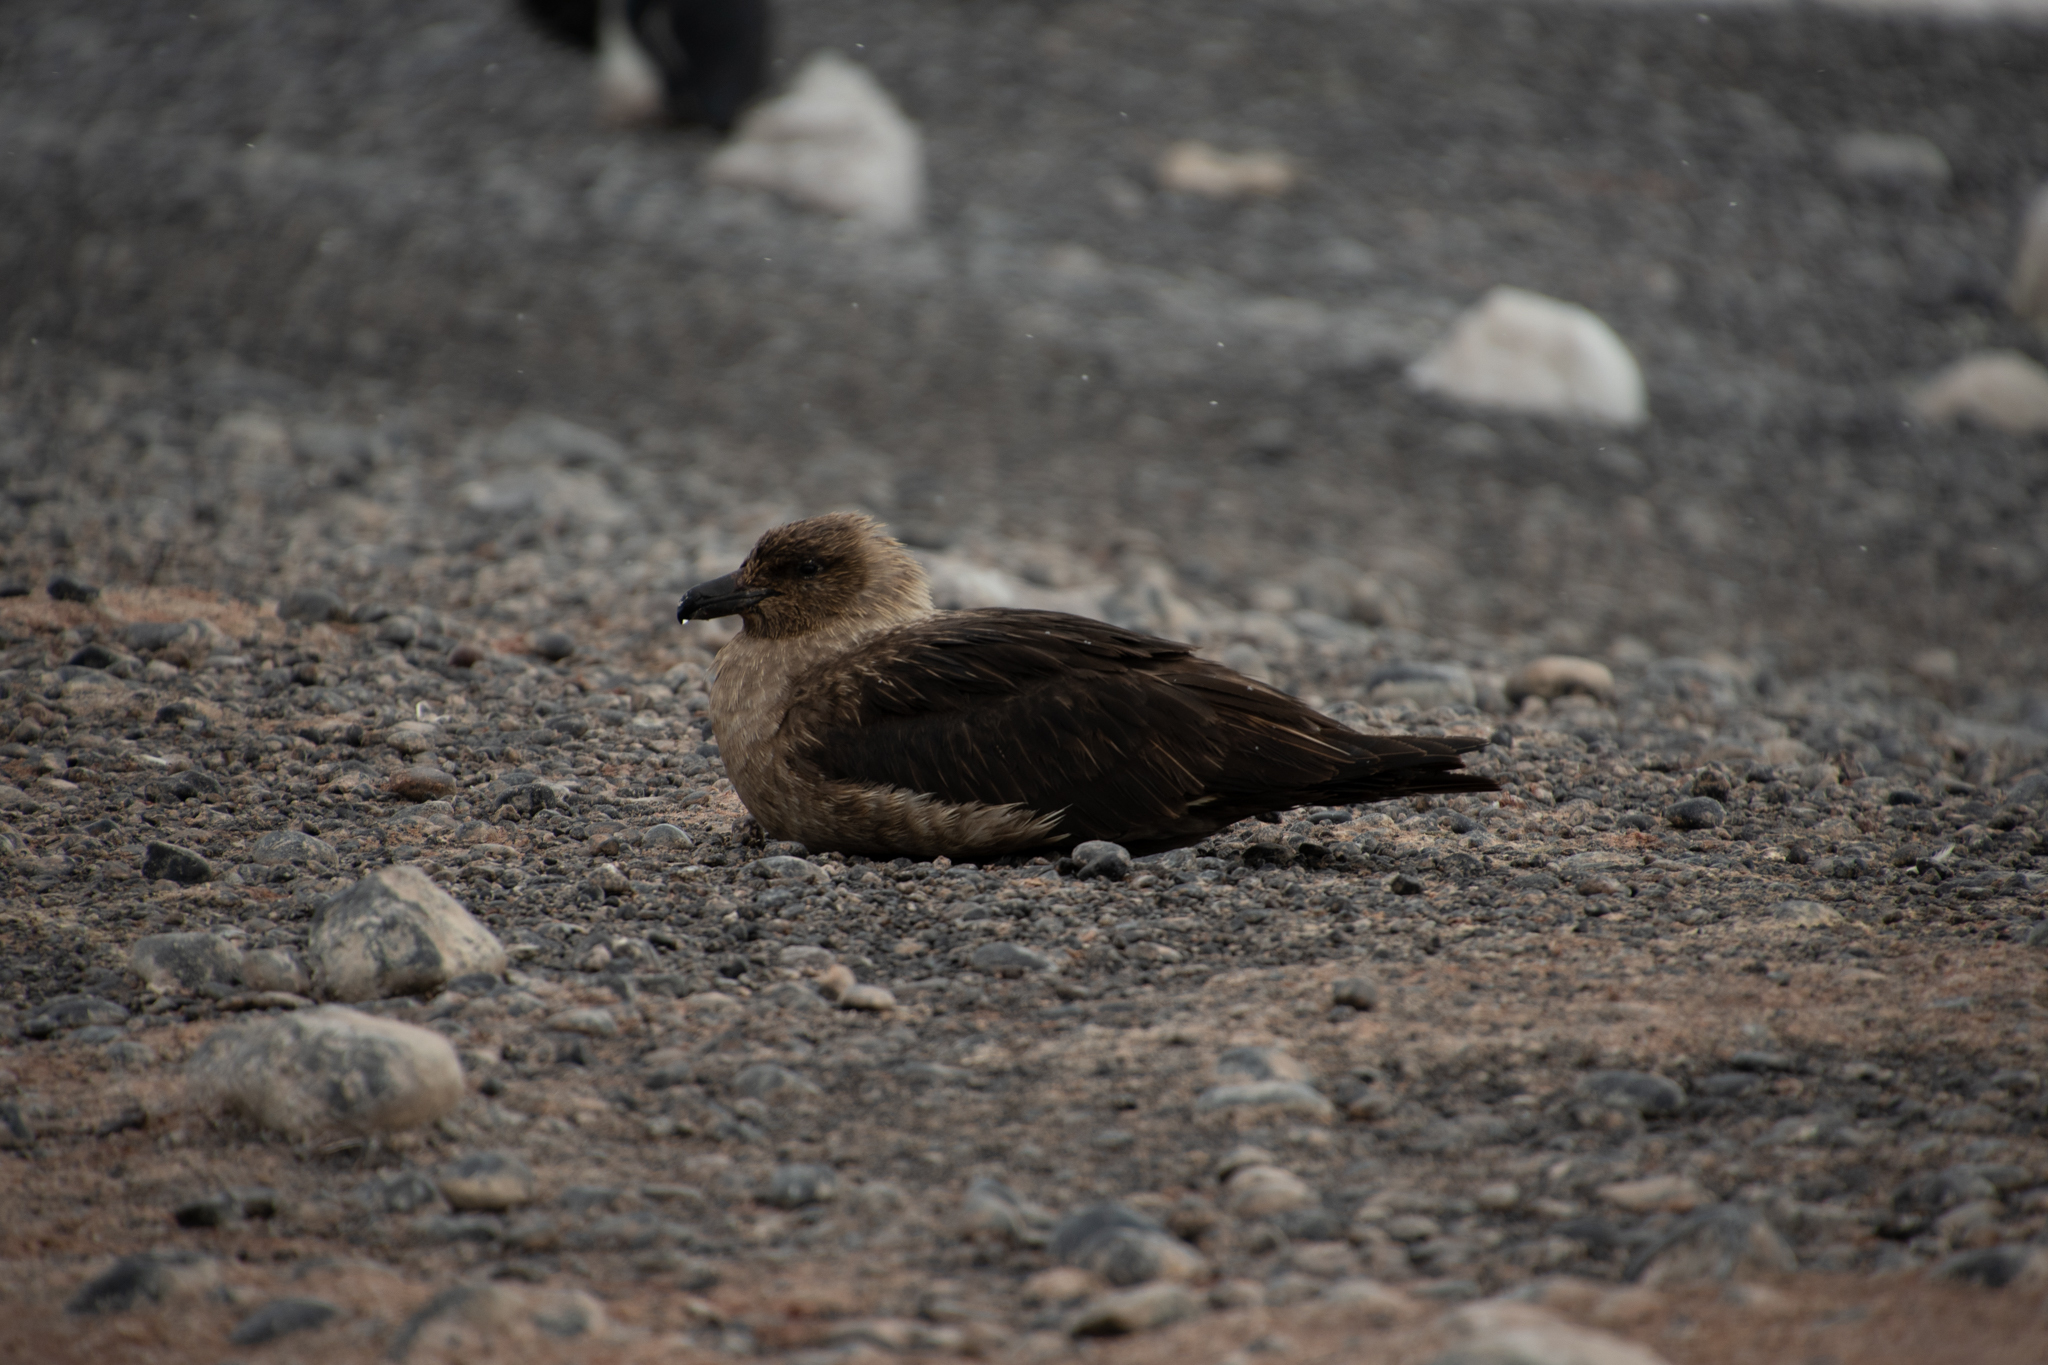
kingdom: Animalia
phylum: Chordata
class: Aves
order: Charadriiformes
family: Stercorariidae
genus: Stercorarius
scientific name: Stercorarius maccormicki
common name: South polar skua
